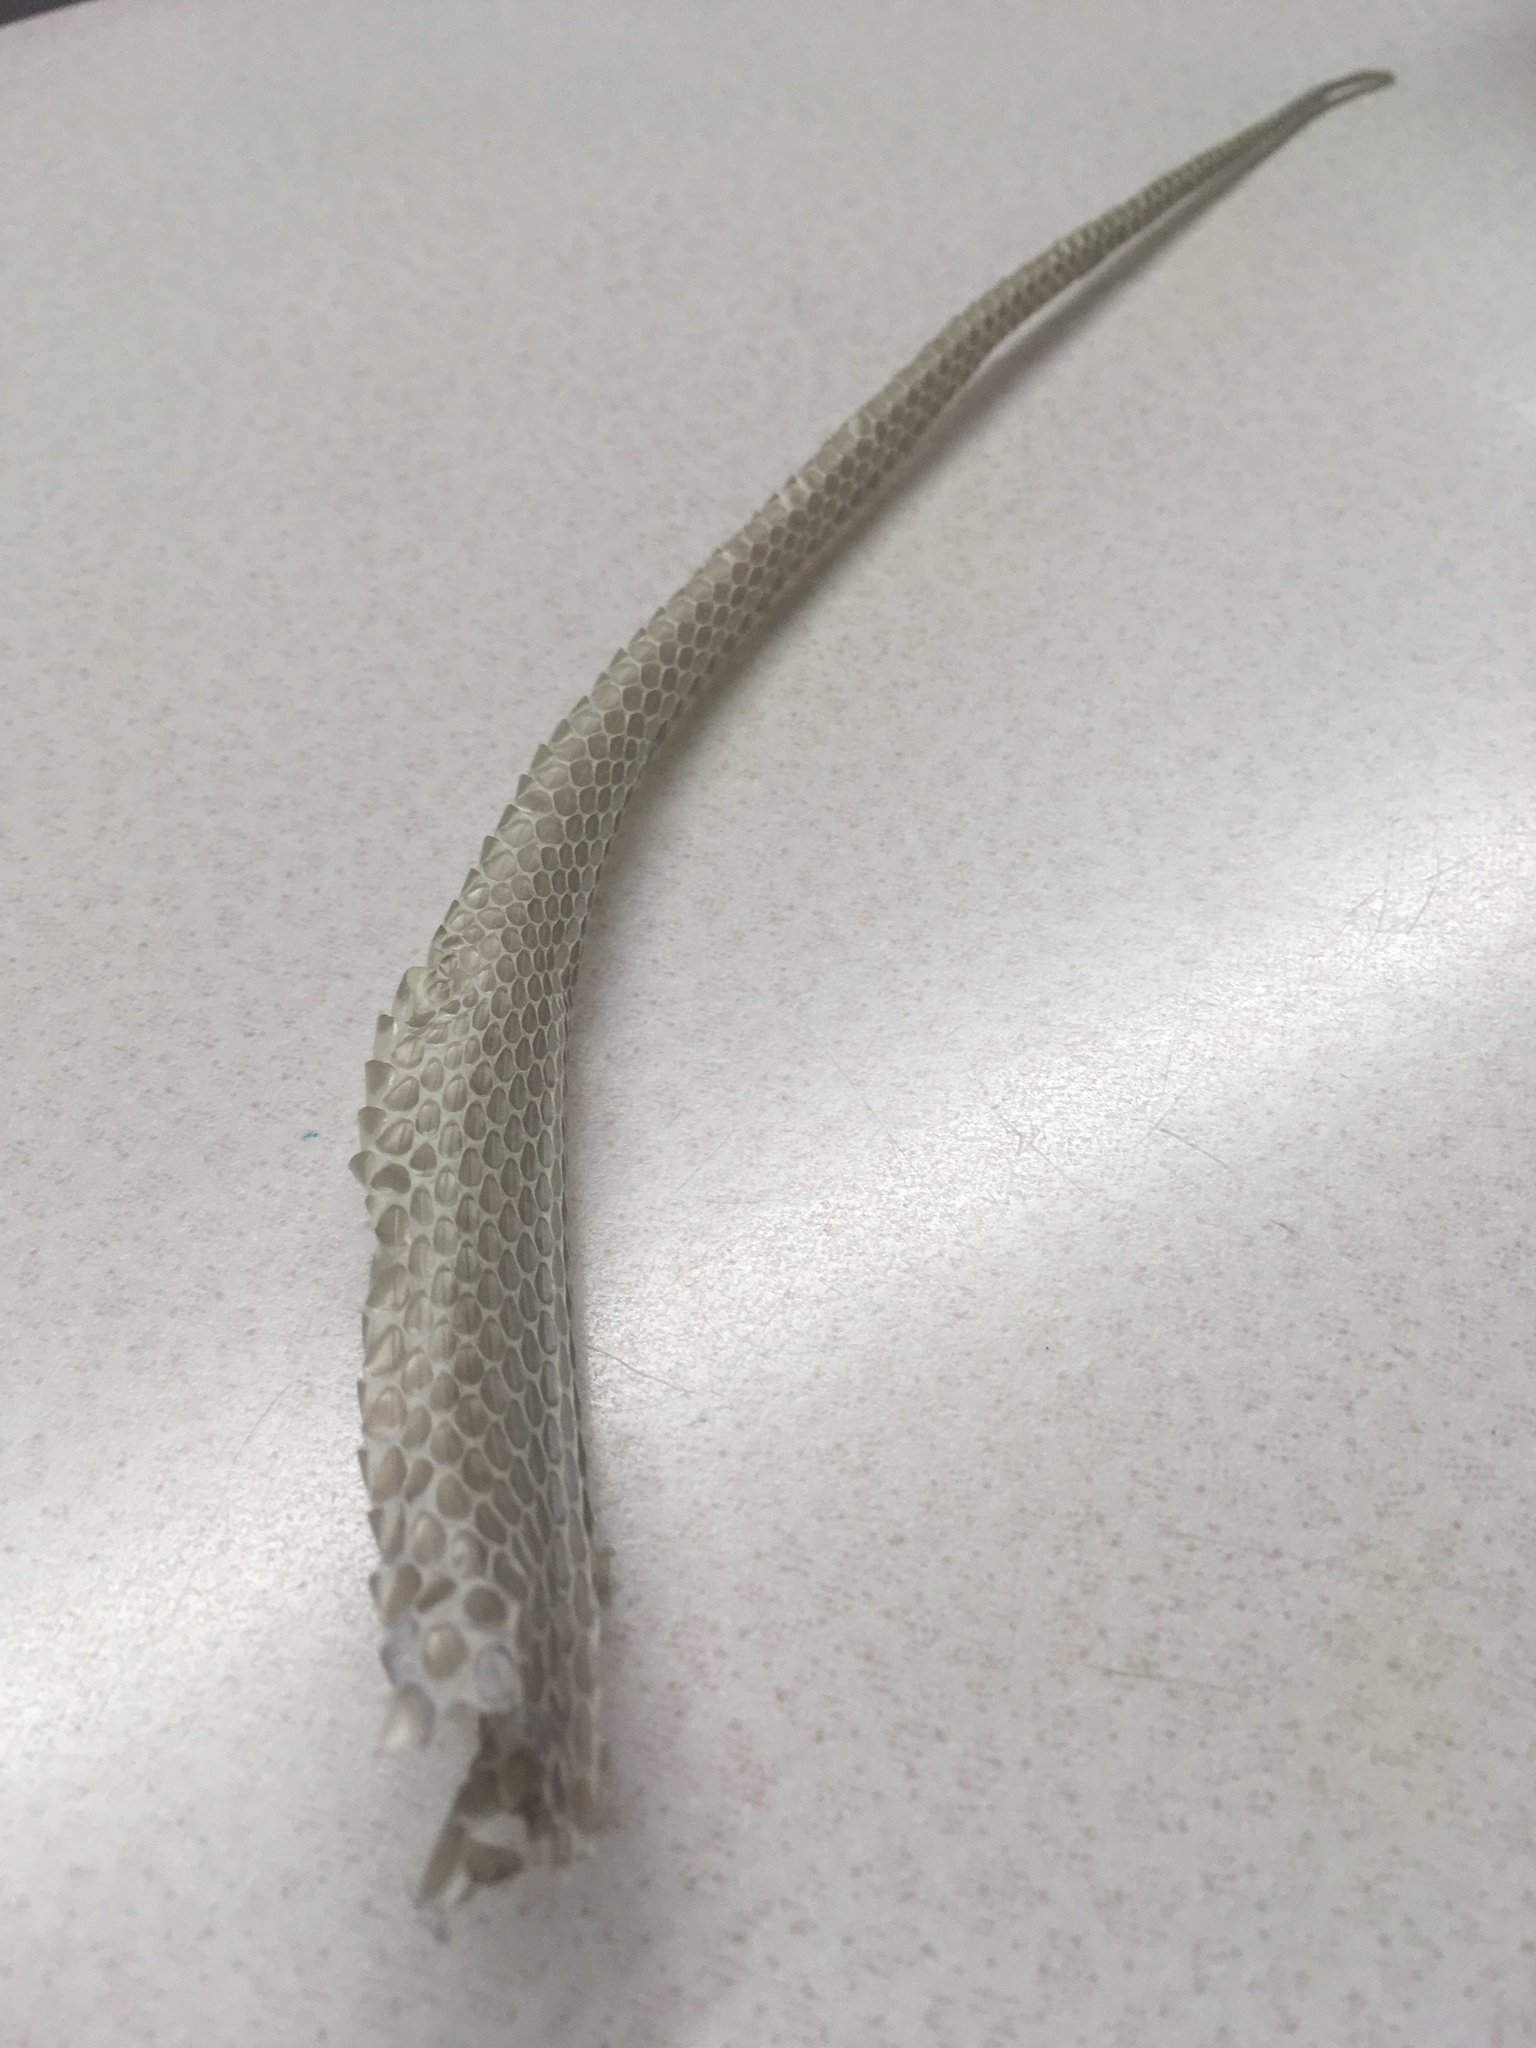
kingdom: Animalia
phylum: Chordata
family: Natricidae
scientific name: Natricidae
